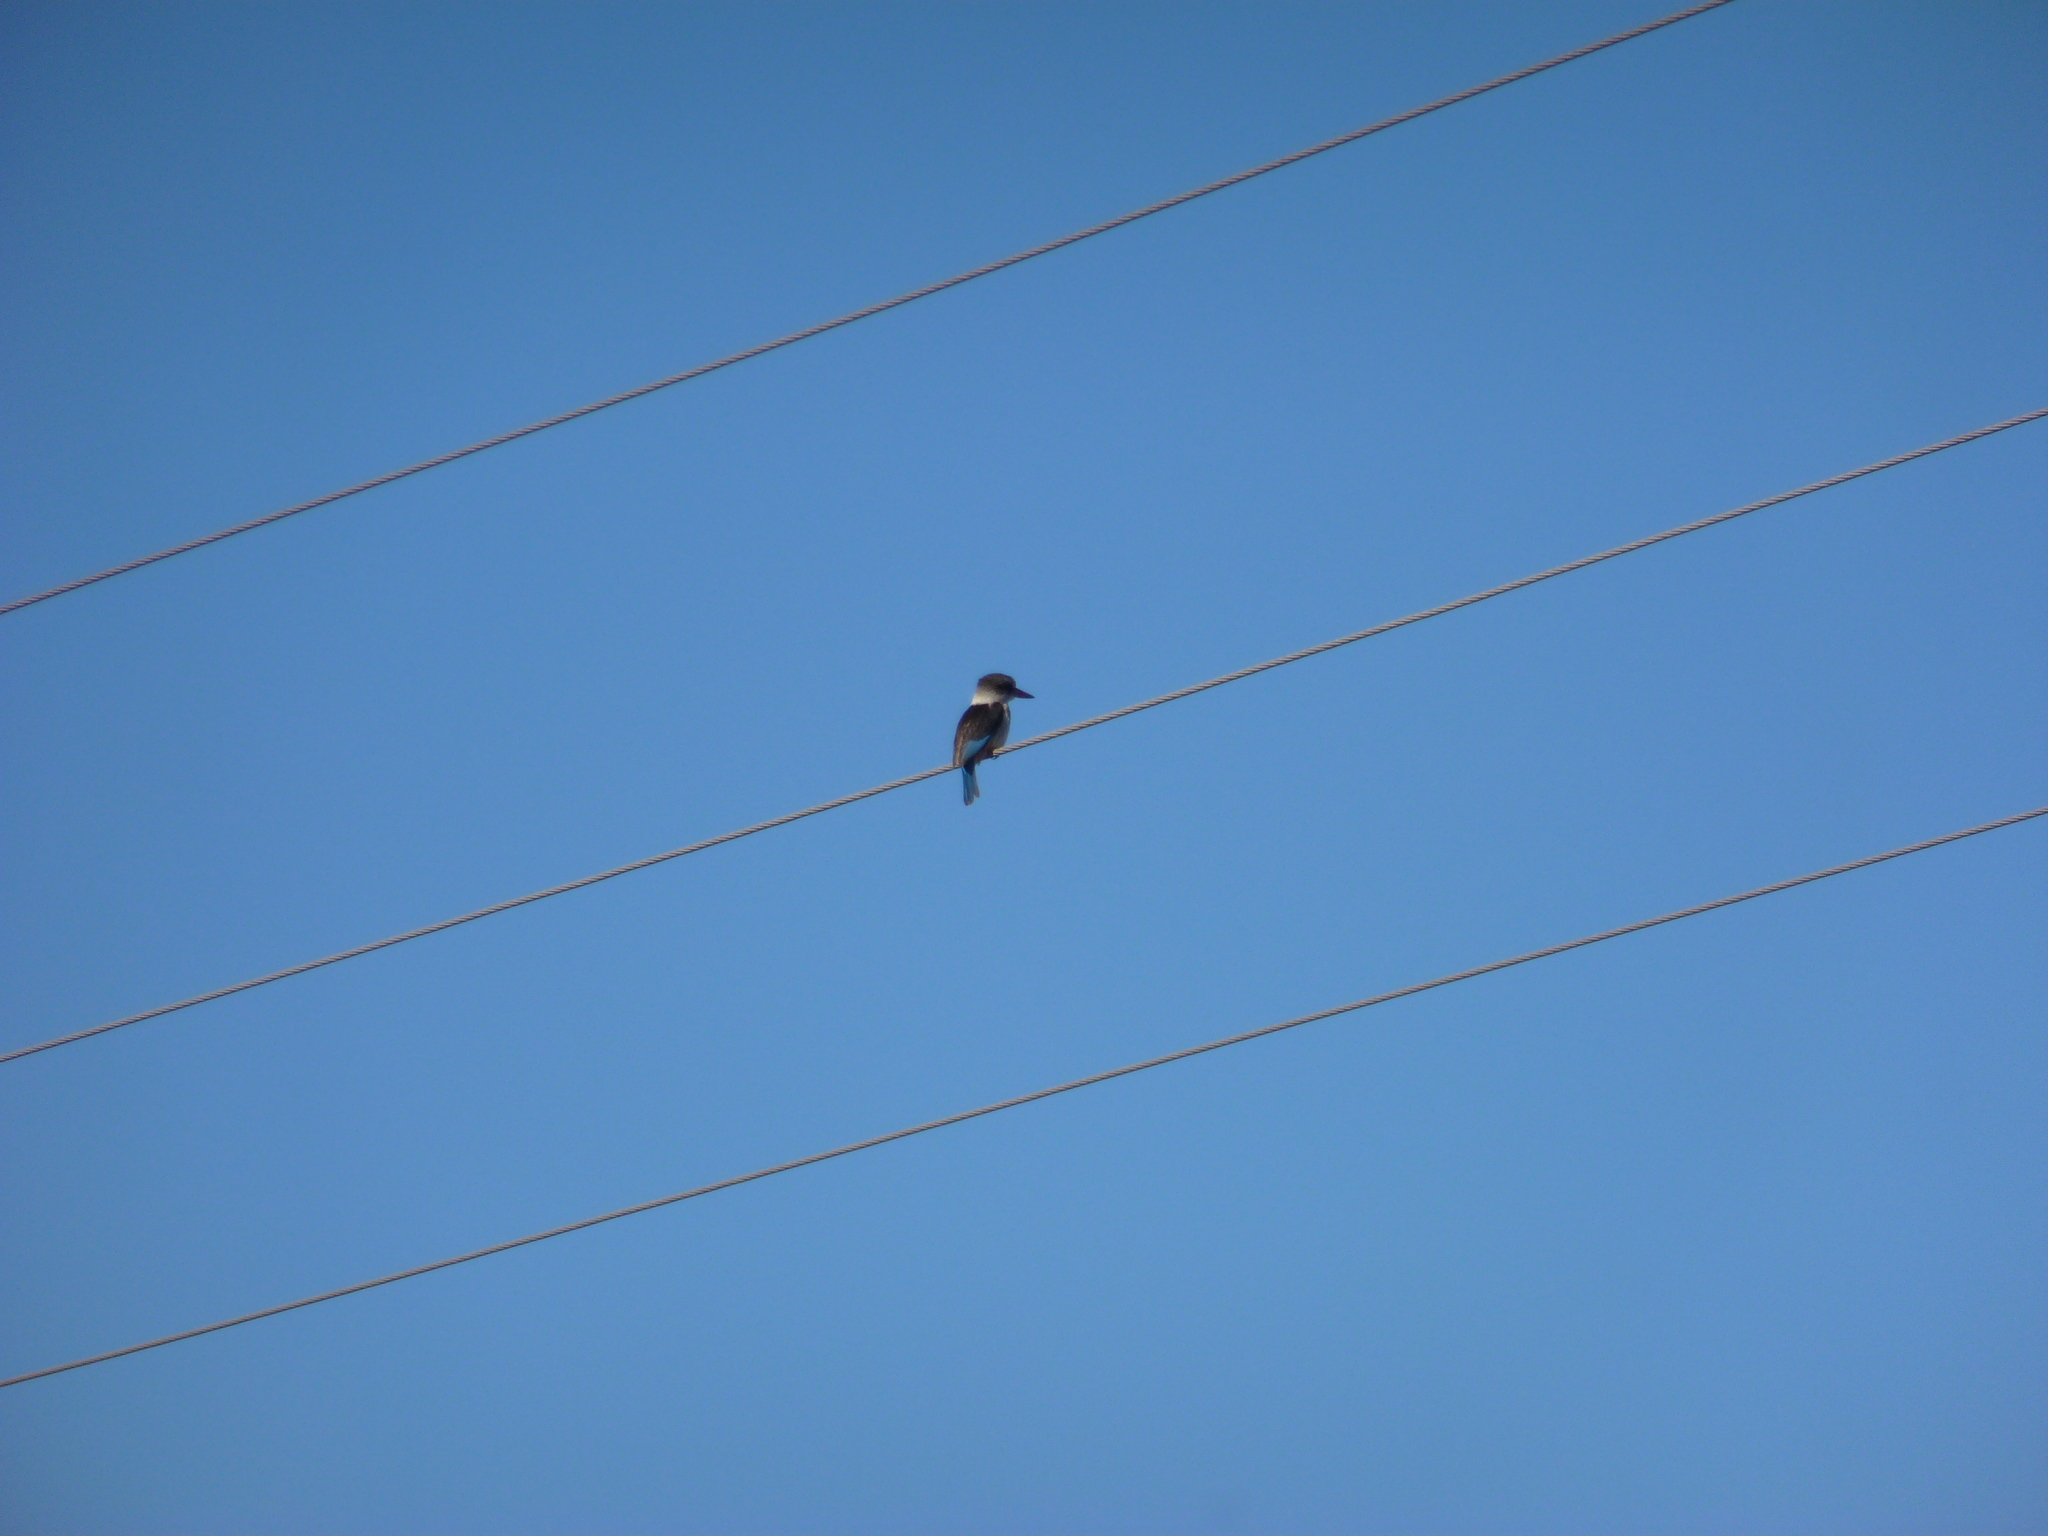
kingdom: Animalia
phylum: Chordata
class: Aves
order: Coraciiformes
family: Alcedinidae
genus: Halcyon
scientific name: Halcyon albiventris
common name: Brown-hooded kingfisher
